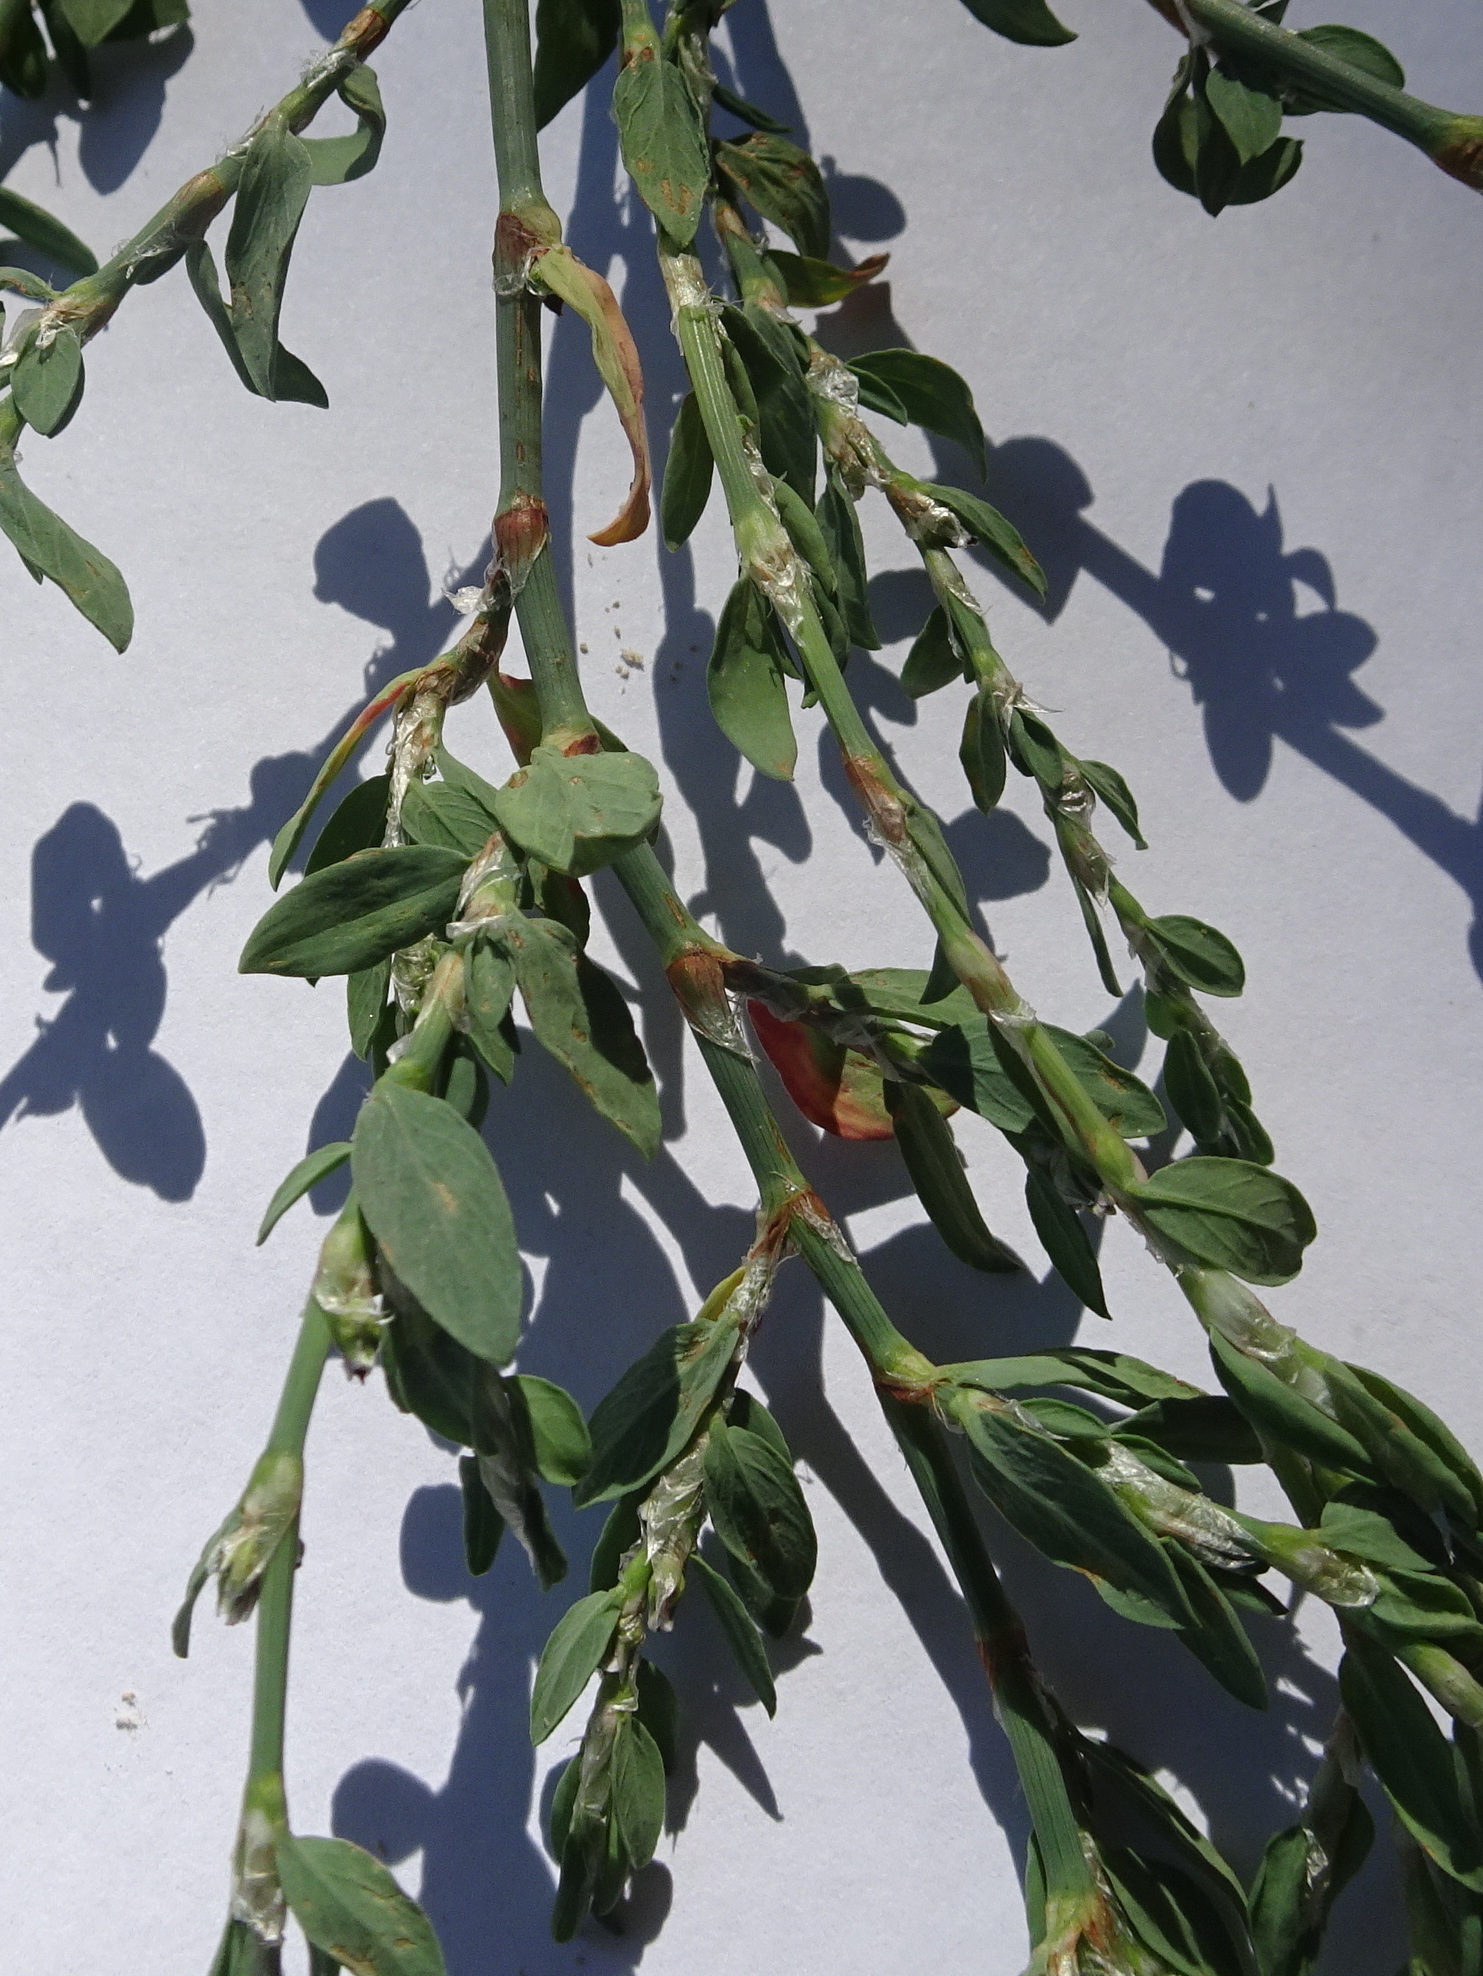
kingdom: Animalia
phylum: Arthropoda
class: Insecta
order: Coleoptera
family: Curculionidae
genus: Lixus
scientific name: Lixus musculus
